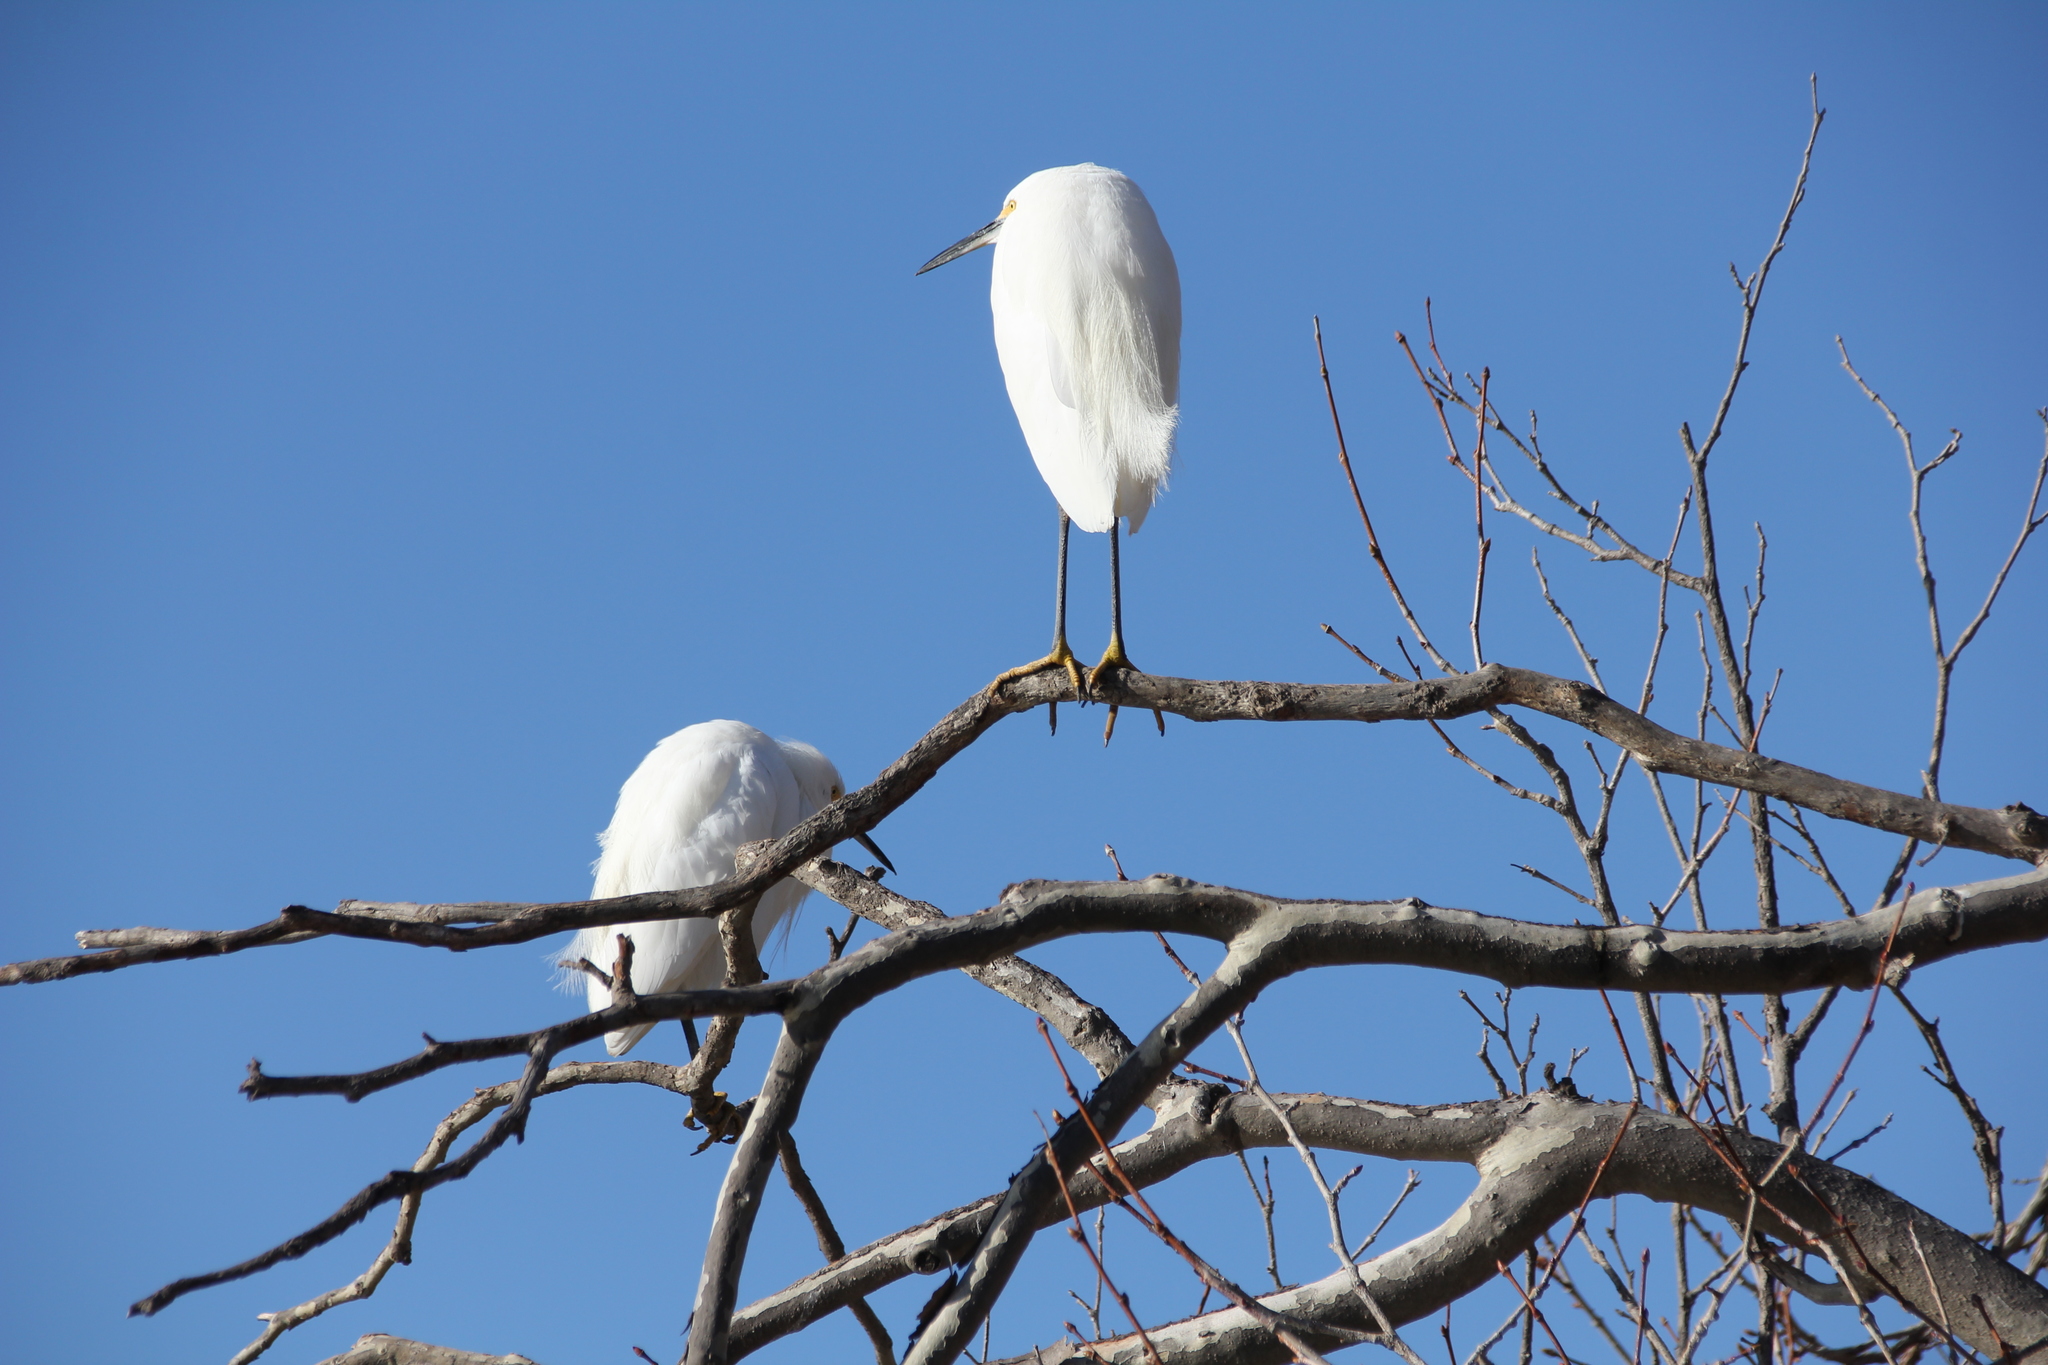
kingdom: Animalia
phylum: Chordata
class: Aves
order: Pelecaniformes
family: Ardeidae
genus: Egretta
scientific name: Egretta thula
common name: Snowy egret
